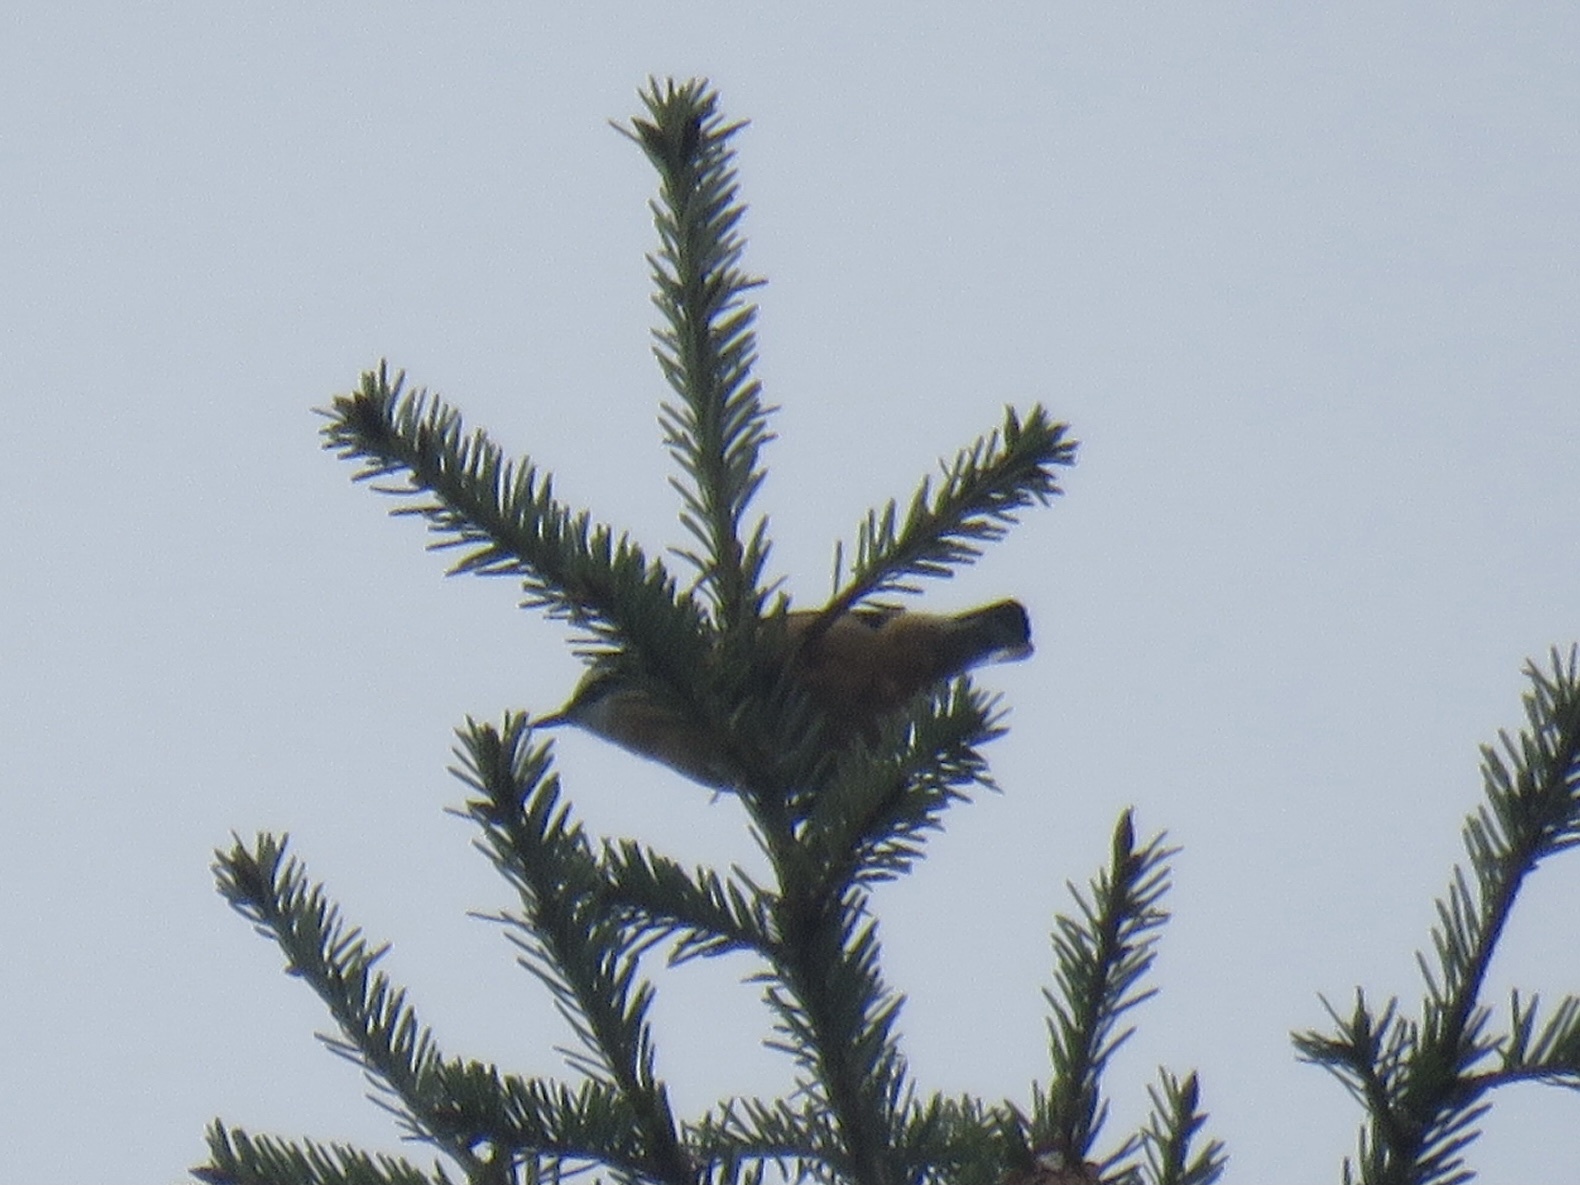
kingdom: Animalia
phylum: Chordata
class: Aves
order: Passeriformes
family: Sittidae
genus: Sitta
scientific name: Sitta canadensis
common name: Red-breasted nuthatch
